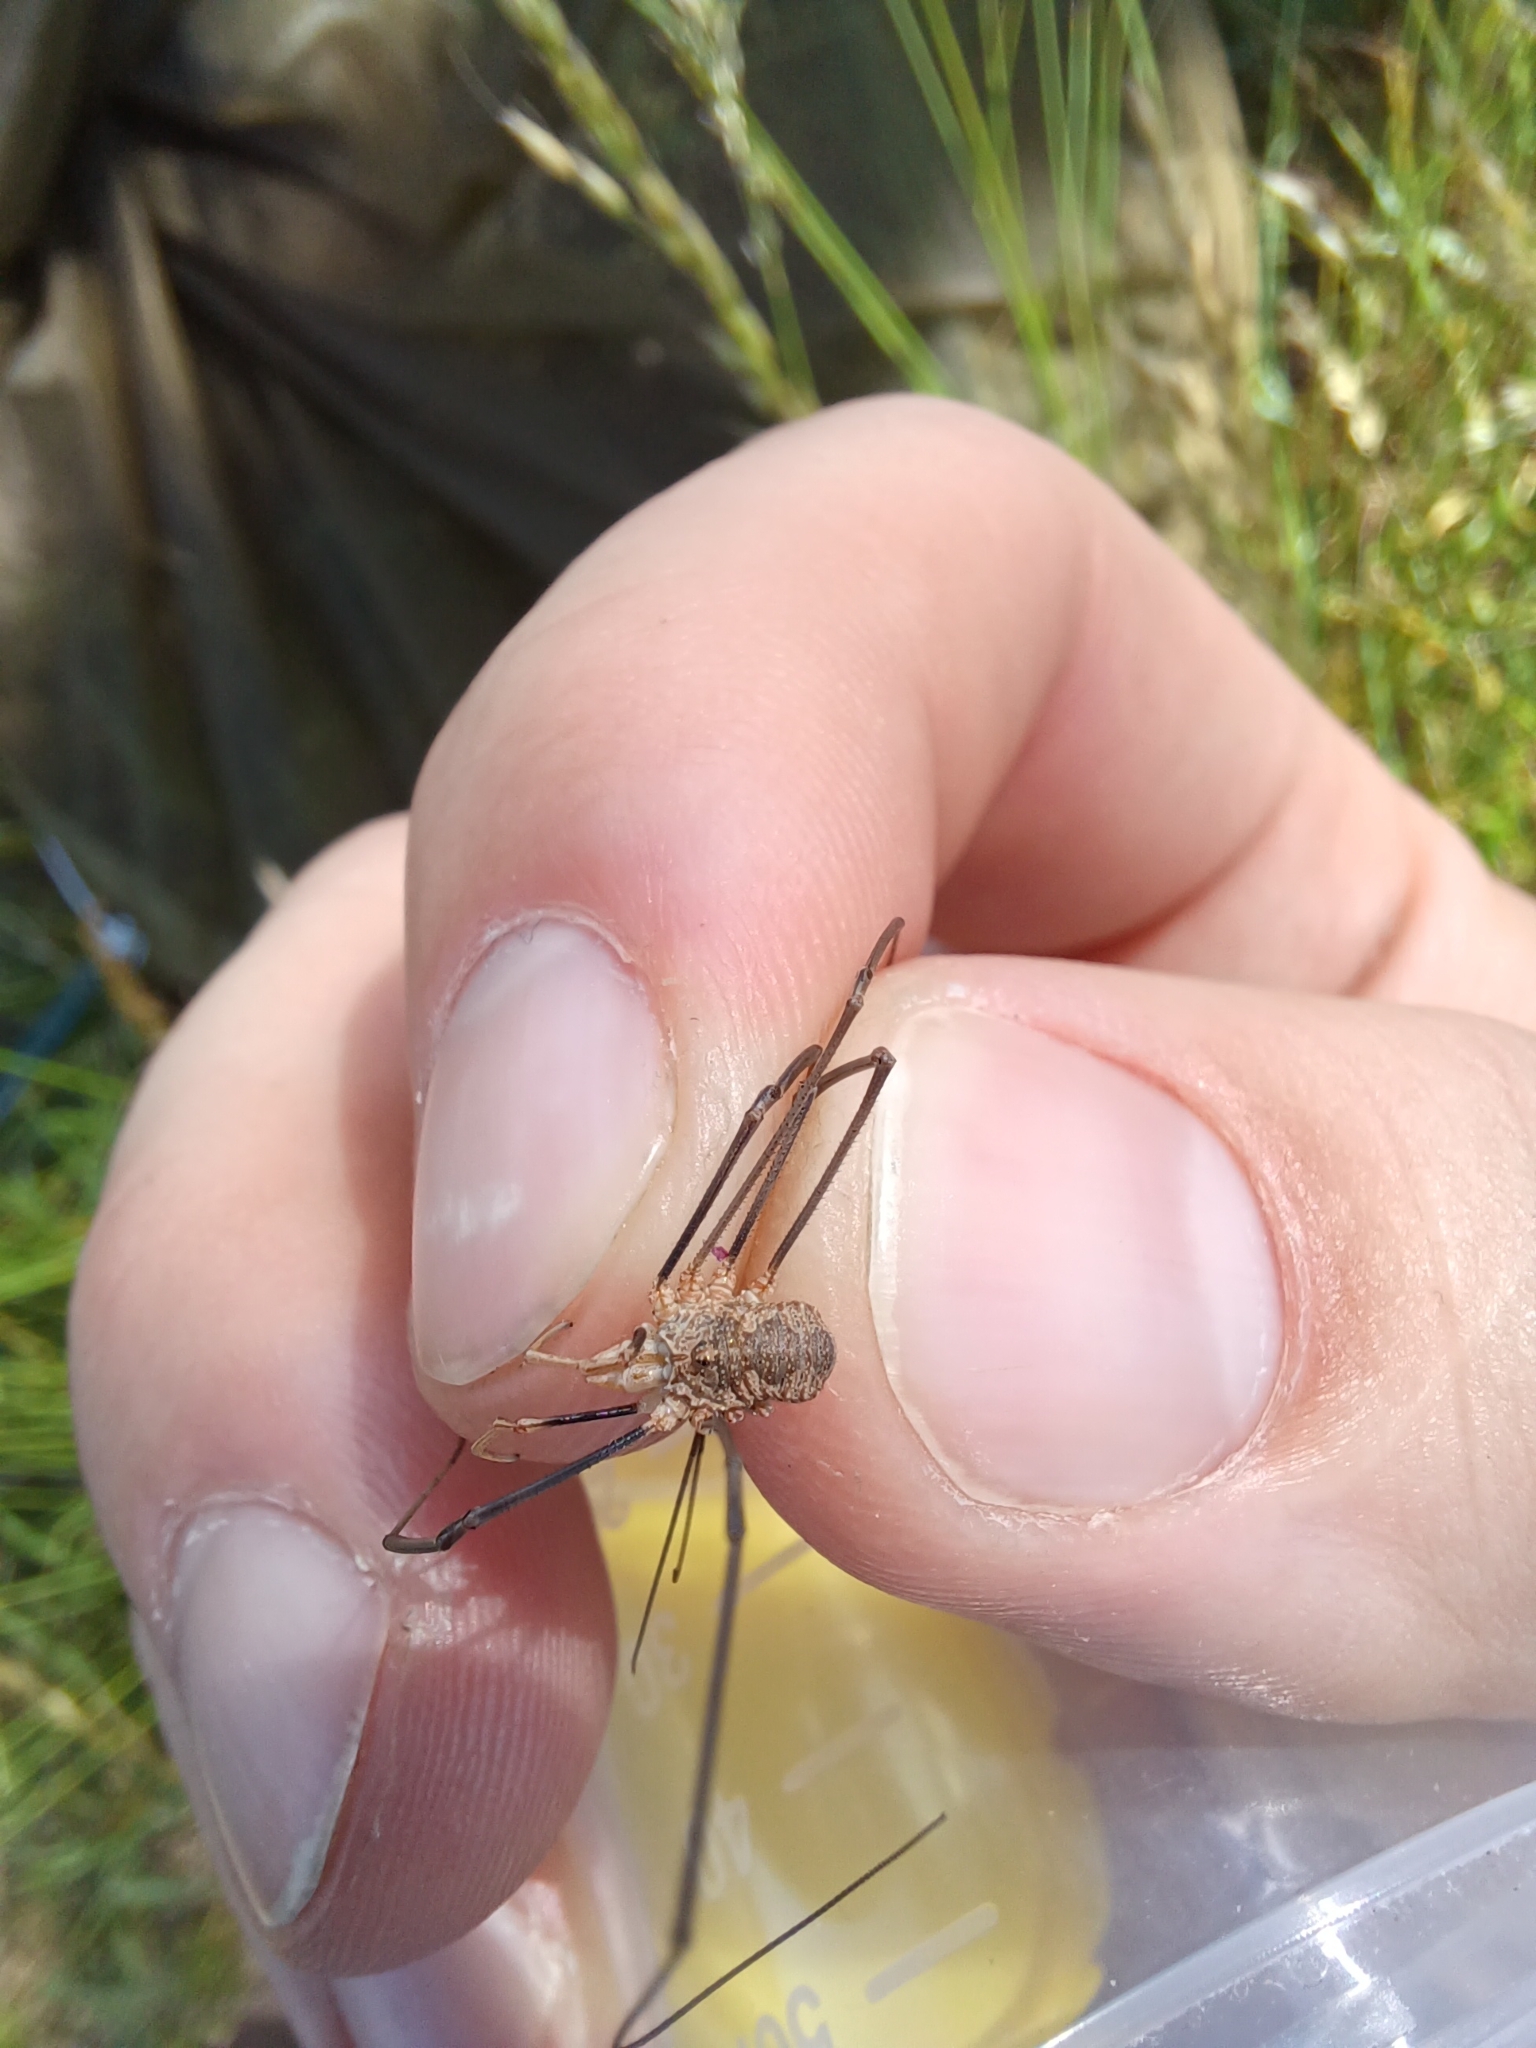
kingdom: Animalia
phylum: Arthropoda
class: Arachnida
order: Opiliones
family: Phalangiidae
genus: Phalangium
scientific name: Phalangium opilio
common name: Daddy longleg
